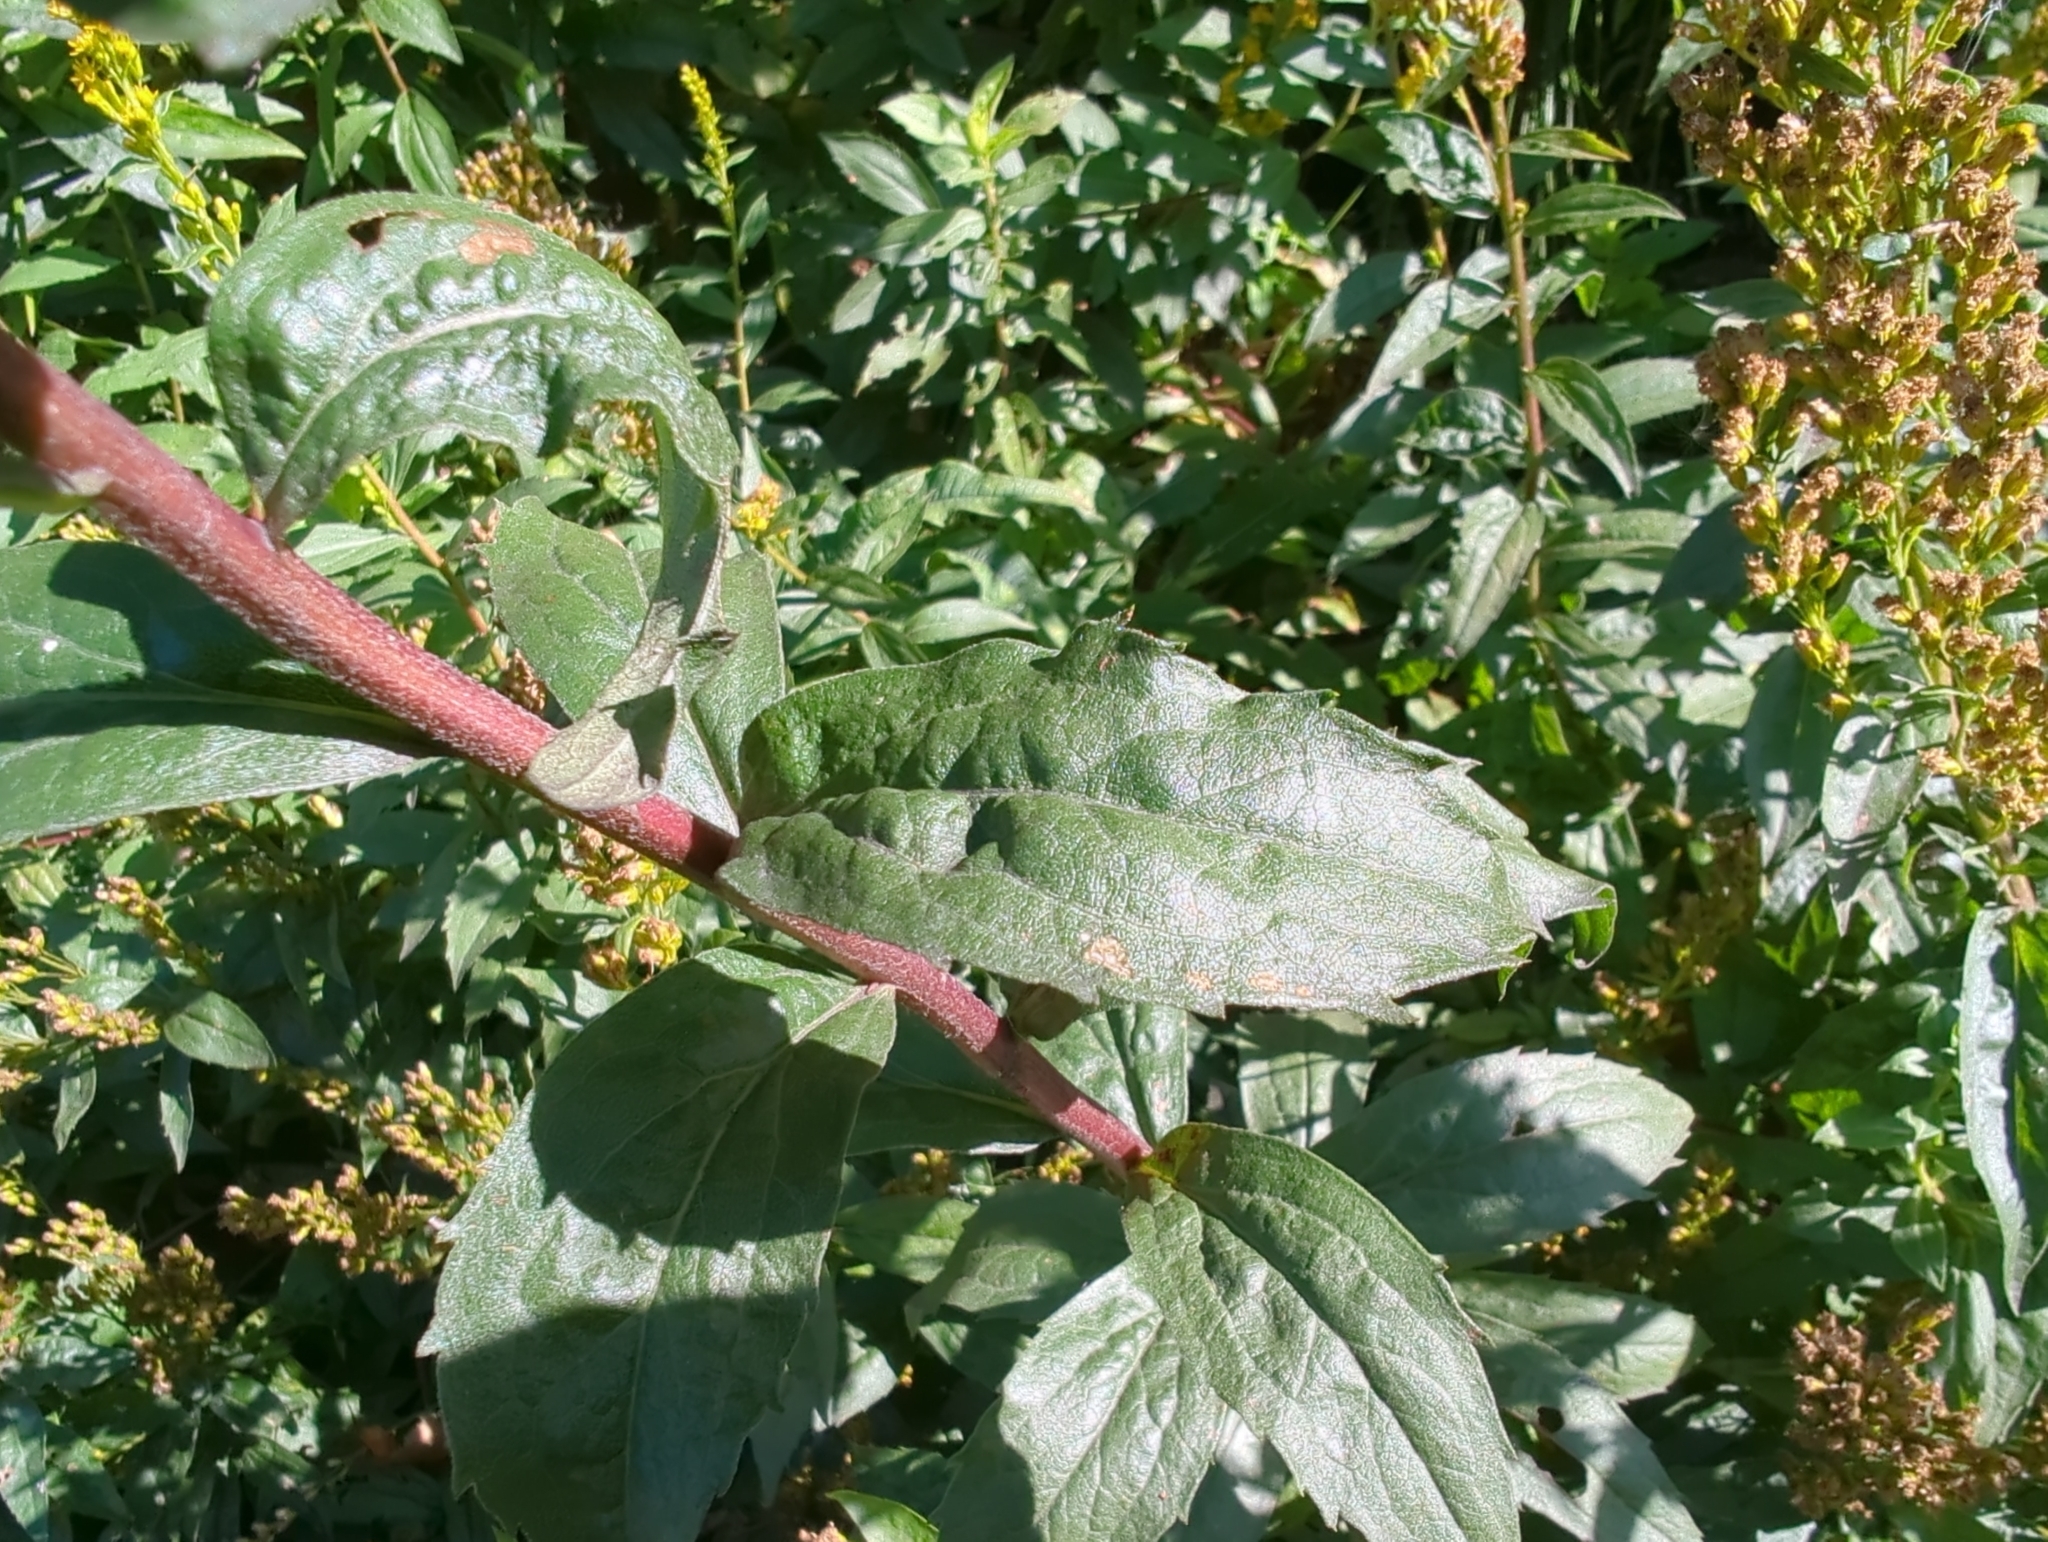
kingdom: Plantae
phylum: Tracheophyta
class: Magnoliopsida
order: Asterales
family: Asteraceae
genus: Solidago
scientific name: Solidago lepida
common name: Western canada goldenrod
